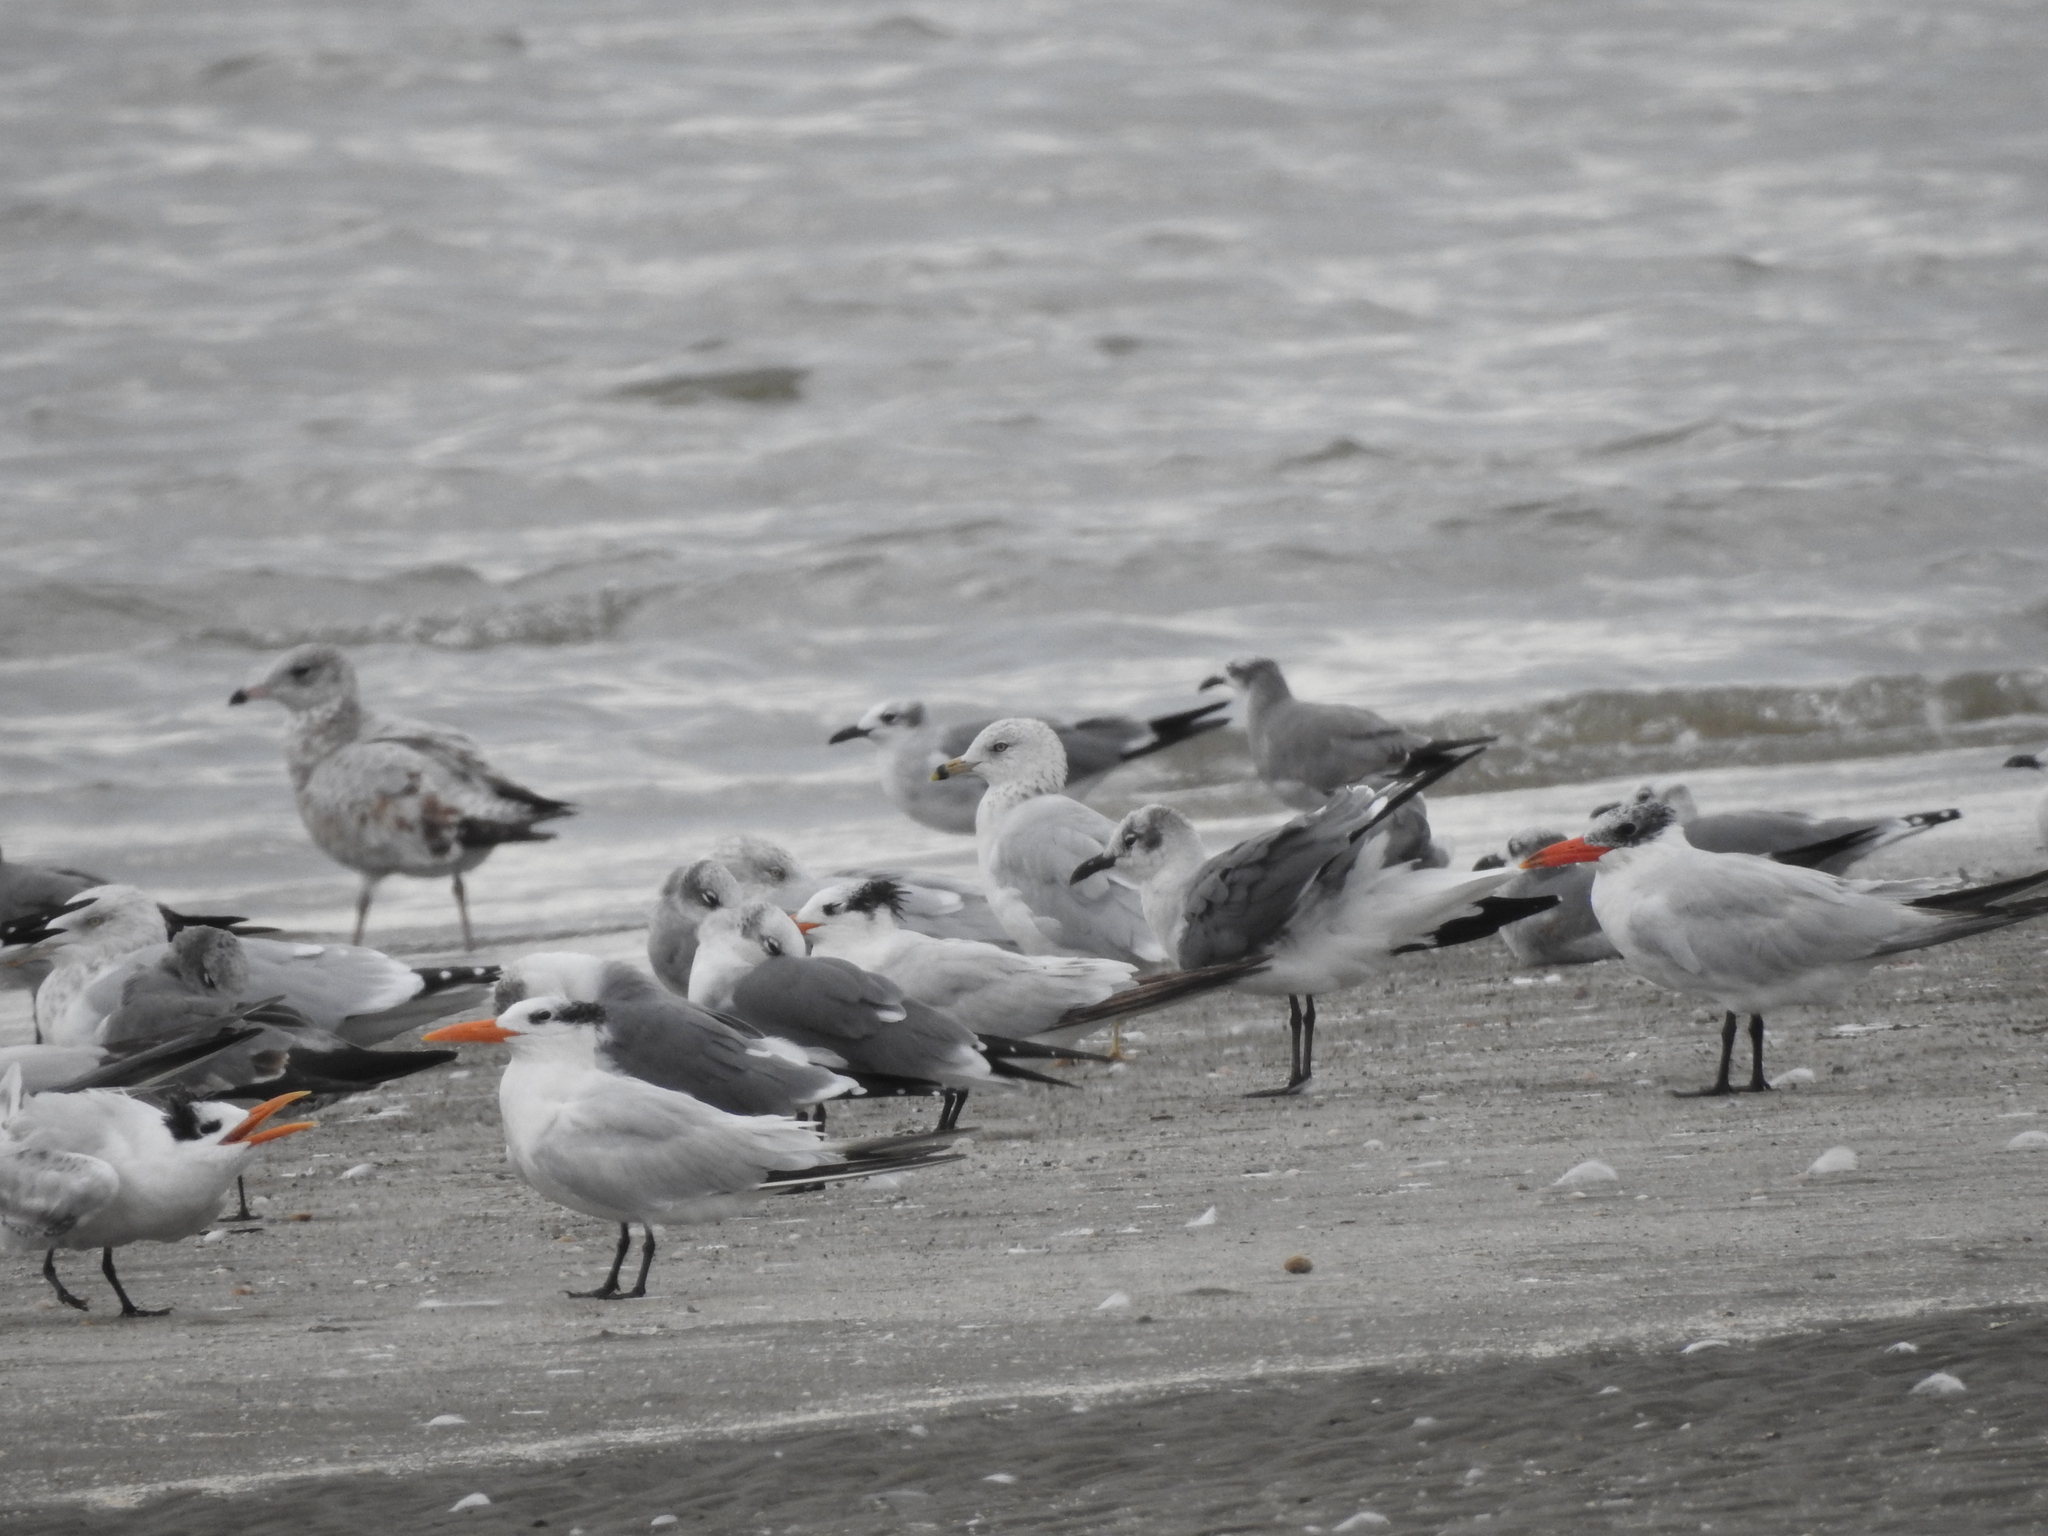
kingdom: Animalia
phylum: Chordata
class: Aves
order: Charadriiformes
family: Laridae
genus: Larus
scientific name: Larus delawarensis
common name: Ring-billed gull
